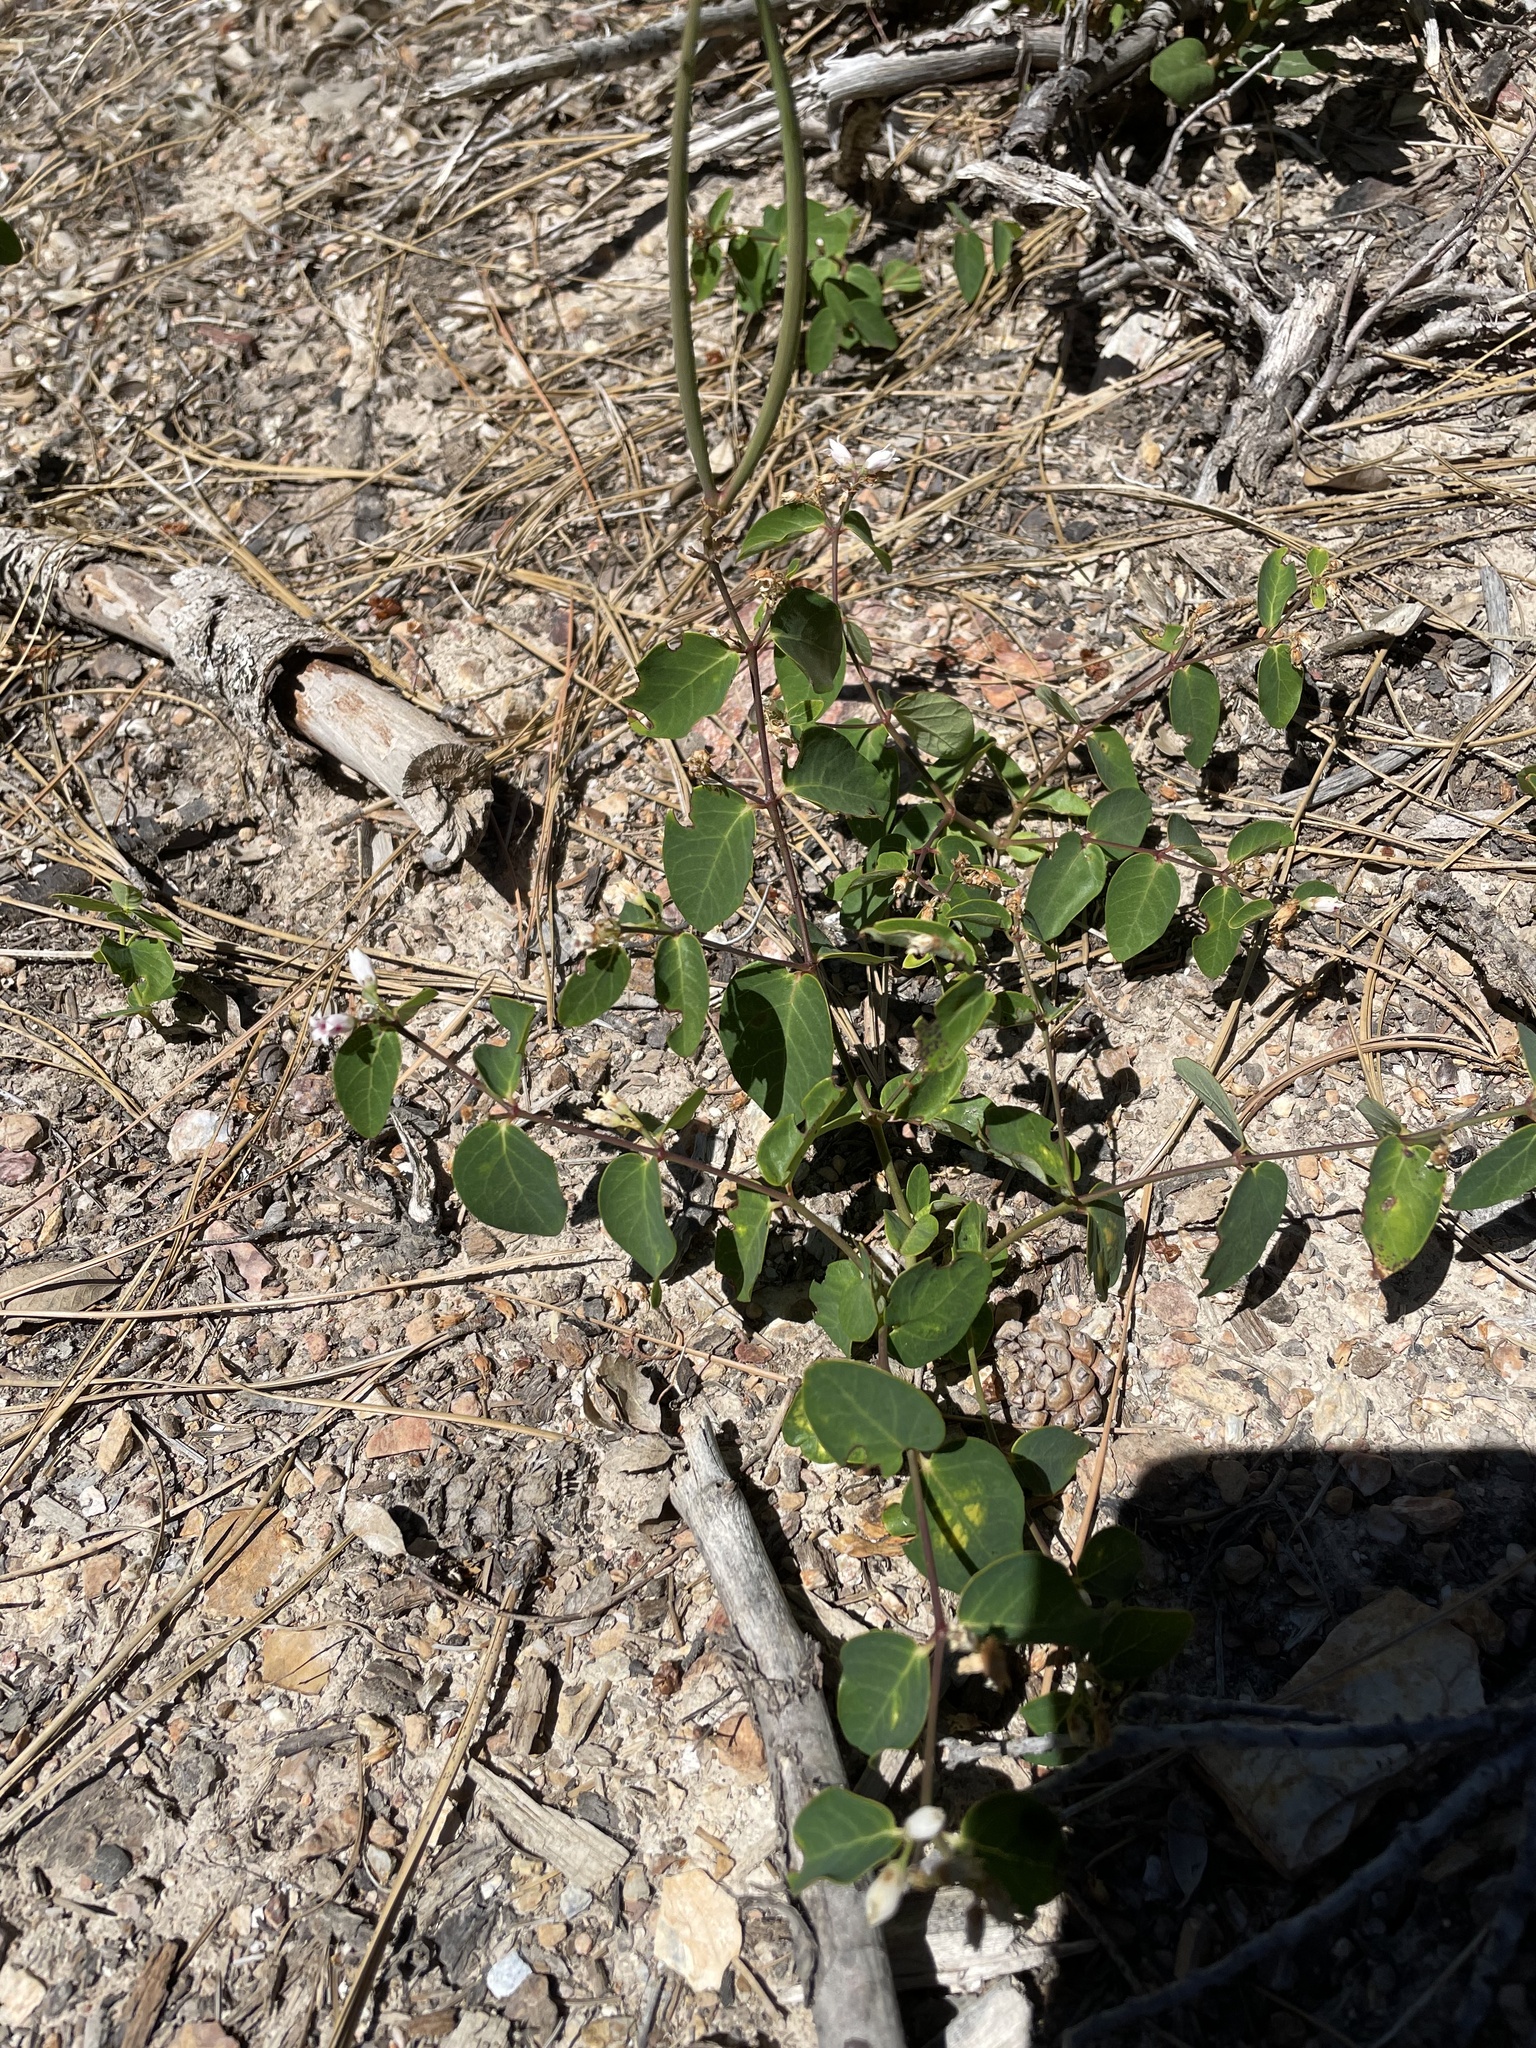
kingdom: Plantae
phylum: Tracheophyta
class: Magnoliopsida
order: Gentianales
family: Apocynaceae
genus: Apocynum
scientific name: Apocynum androsaemifolium
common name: Spreading dogbane
